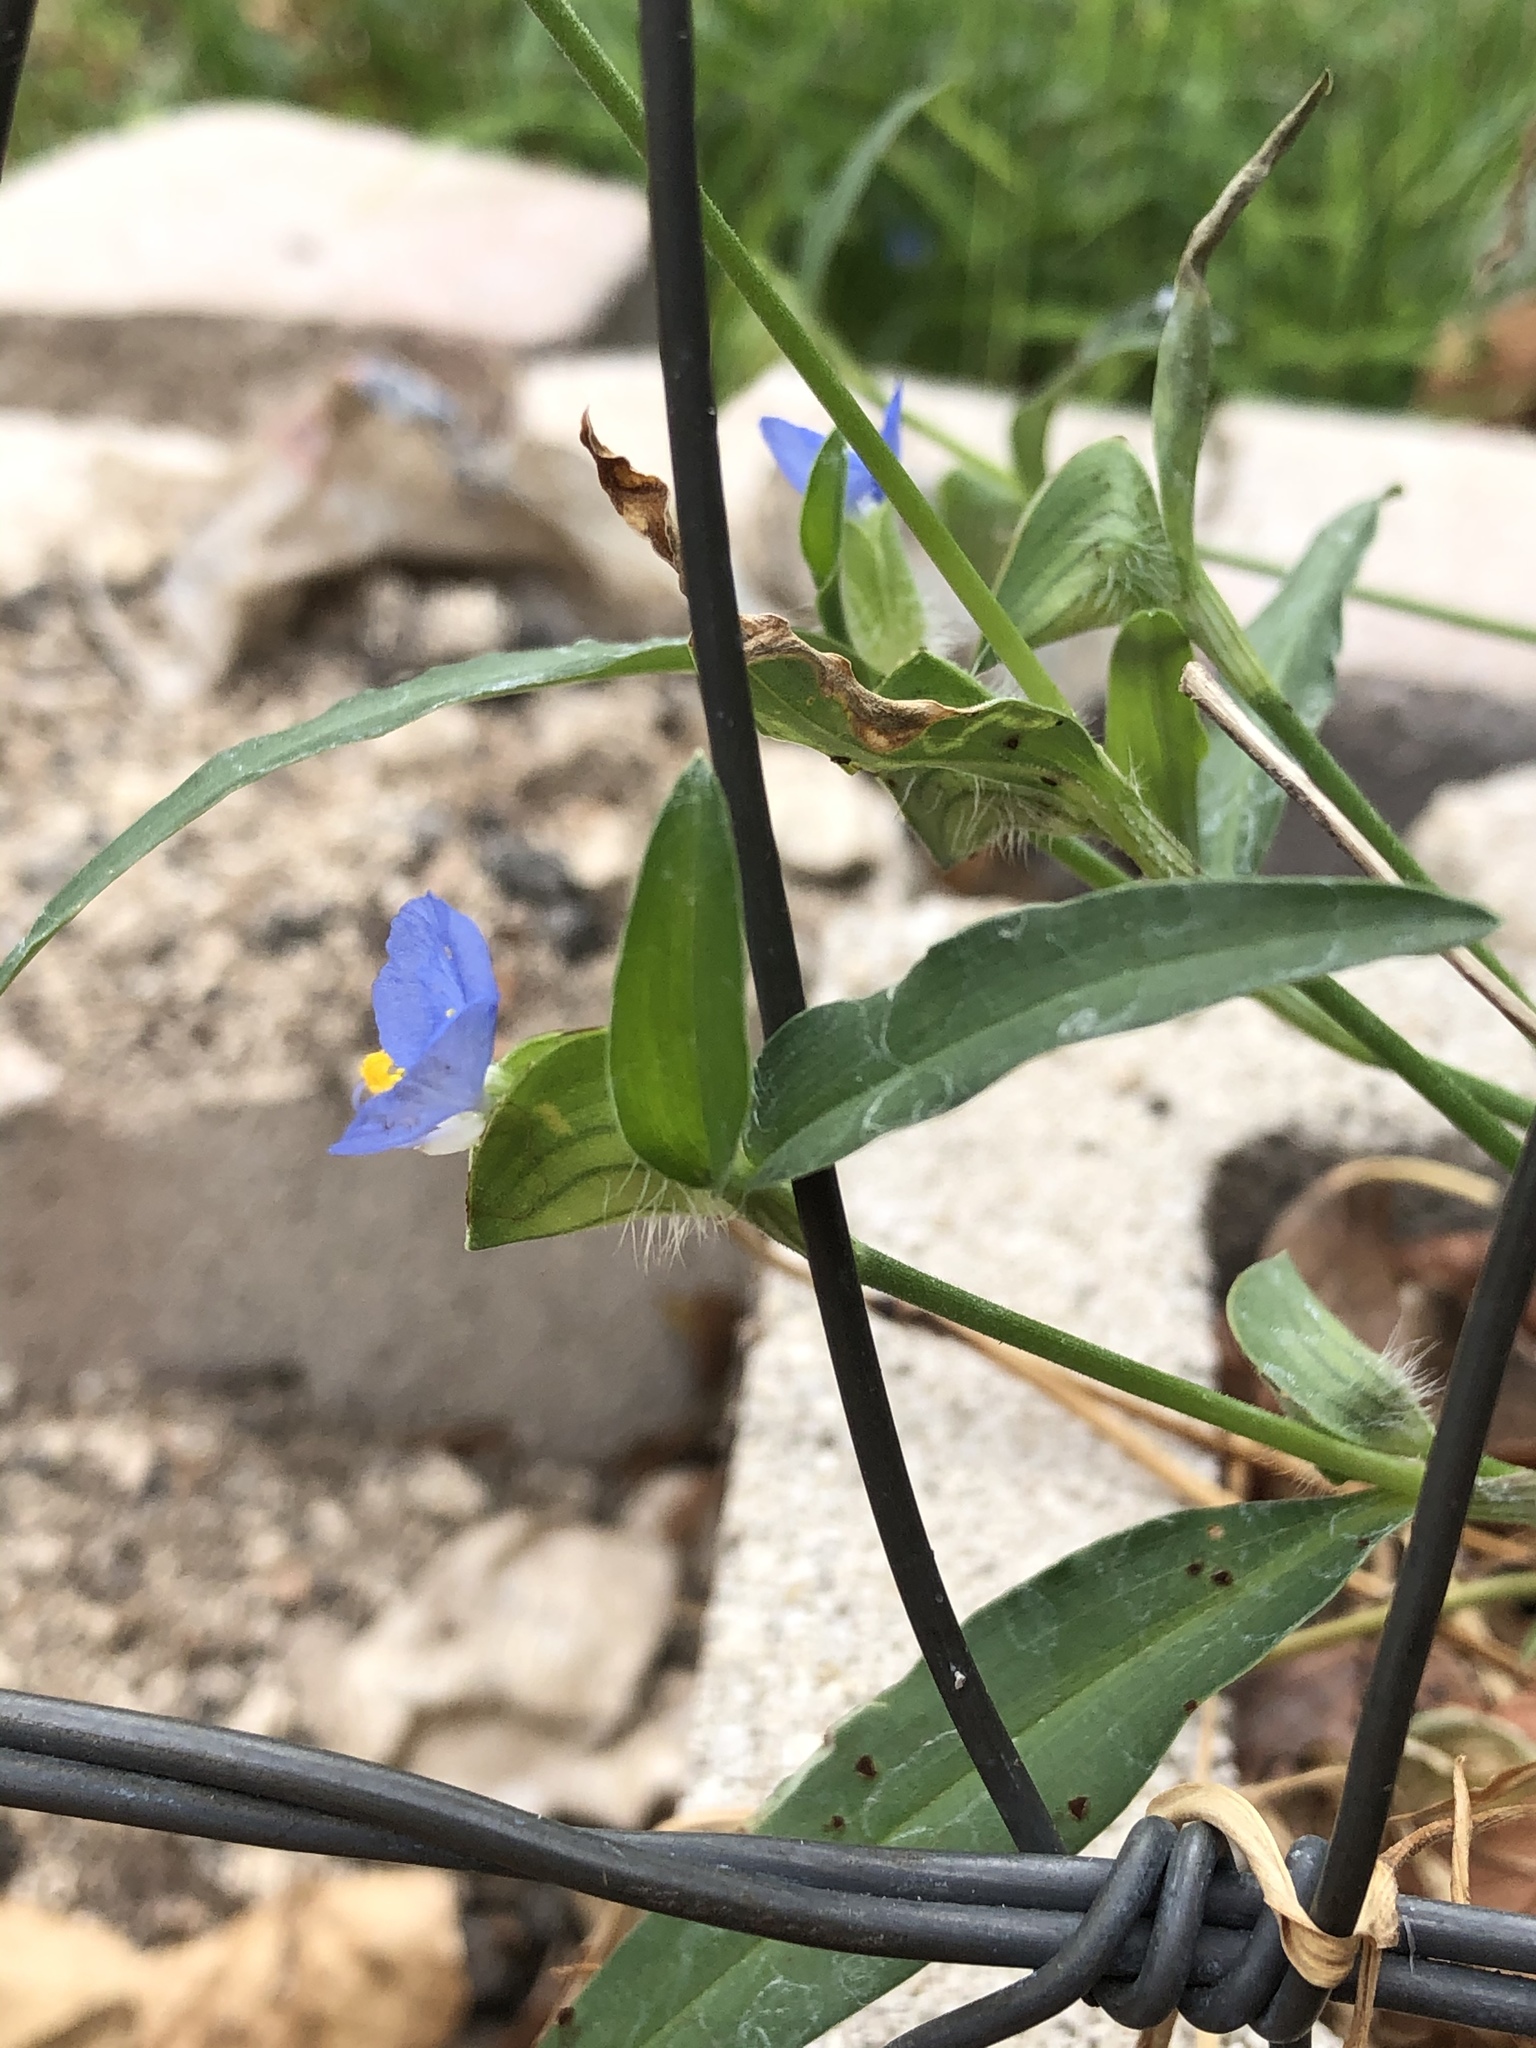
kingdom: Plantae
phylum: Tracheophyta
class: Liliopsida
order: Commelinales
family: Commelinaceae
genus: Commelina
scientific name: Commelina erecta
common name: Blousel blommetjie
